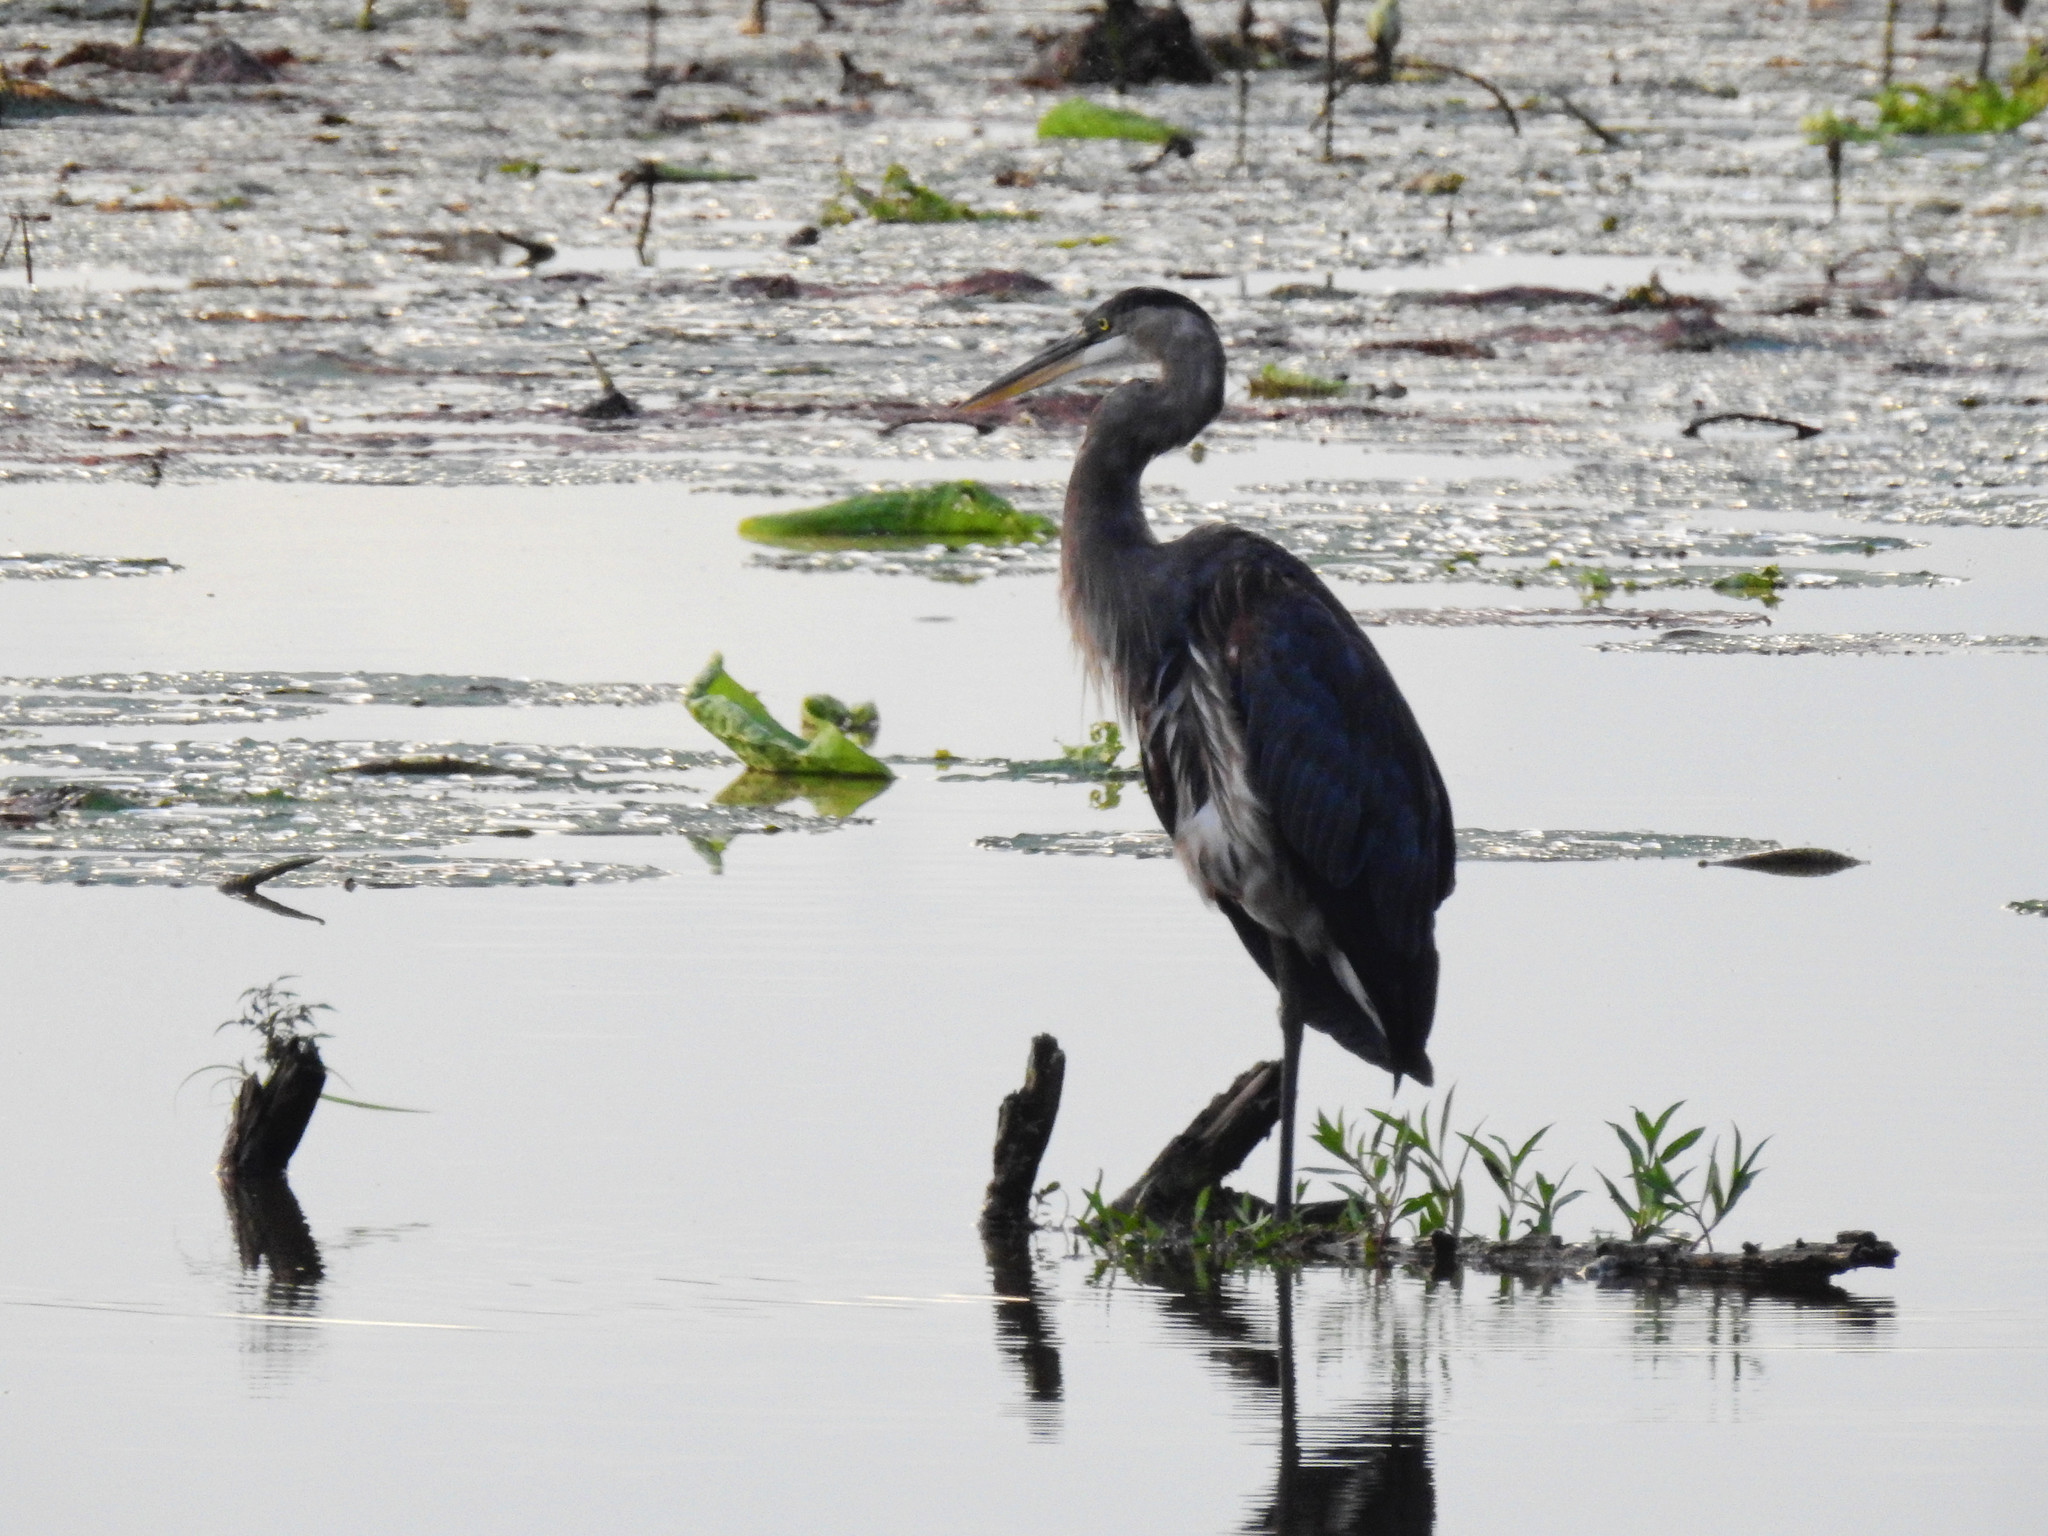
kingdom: Animalia
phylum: Chordata
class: Aves
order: Pelecaniformes
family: Ardeidae
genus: Ardea
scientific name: Ardea herodias
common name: Great blue heron
